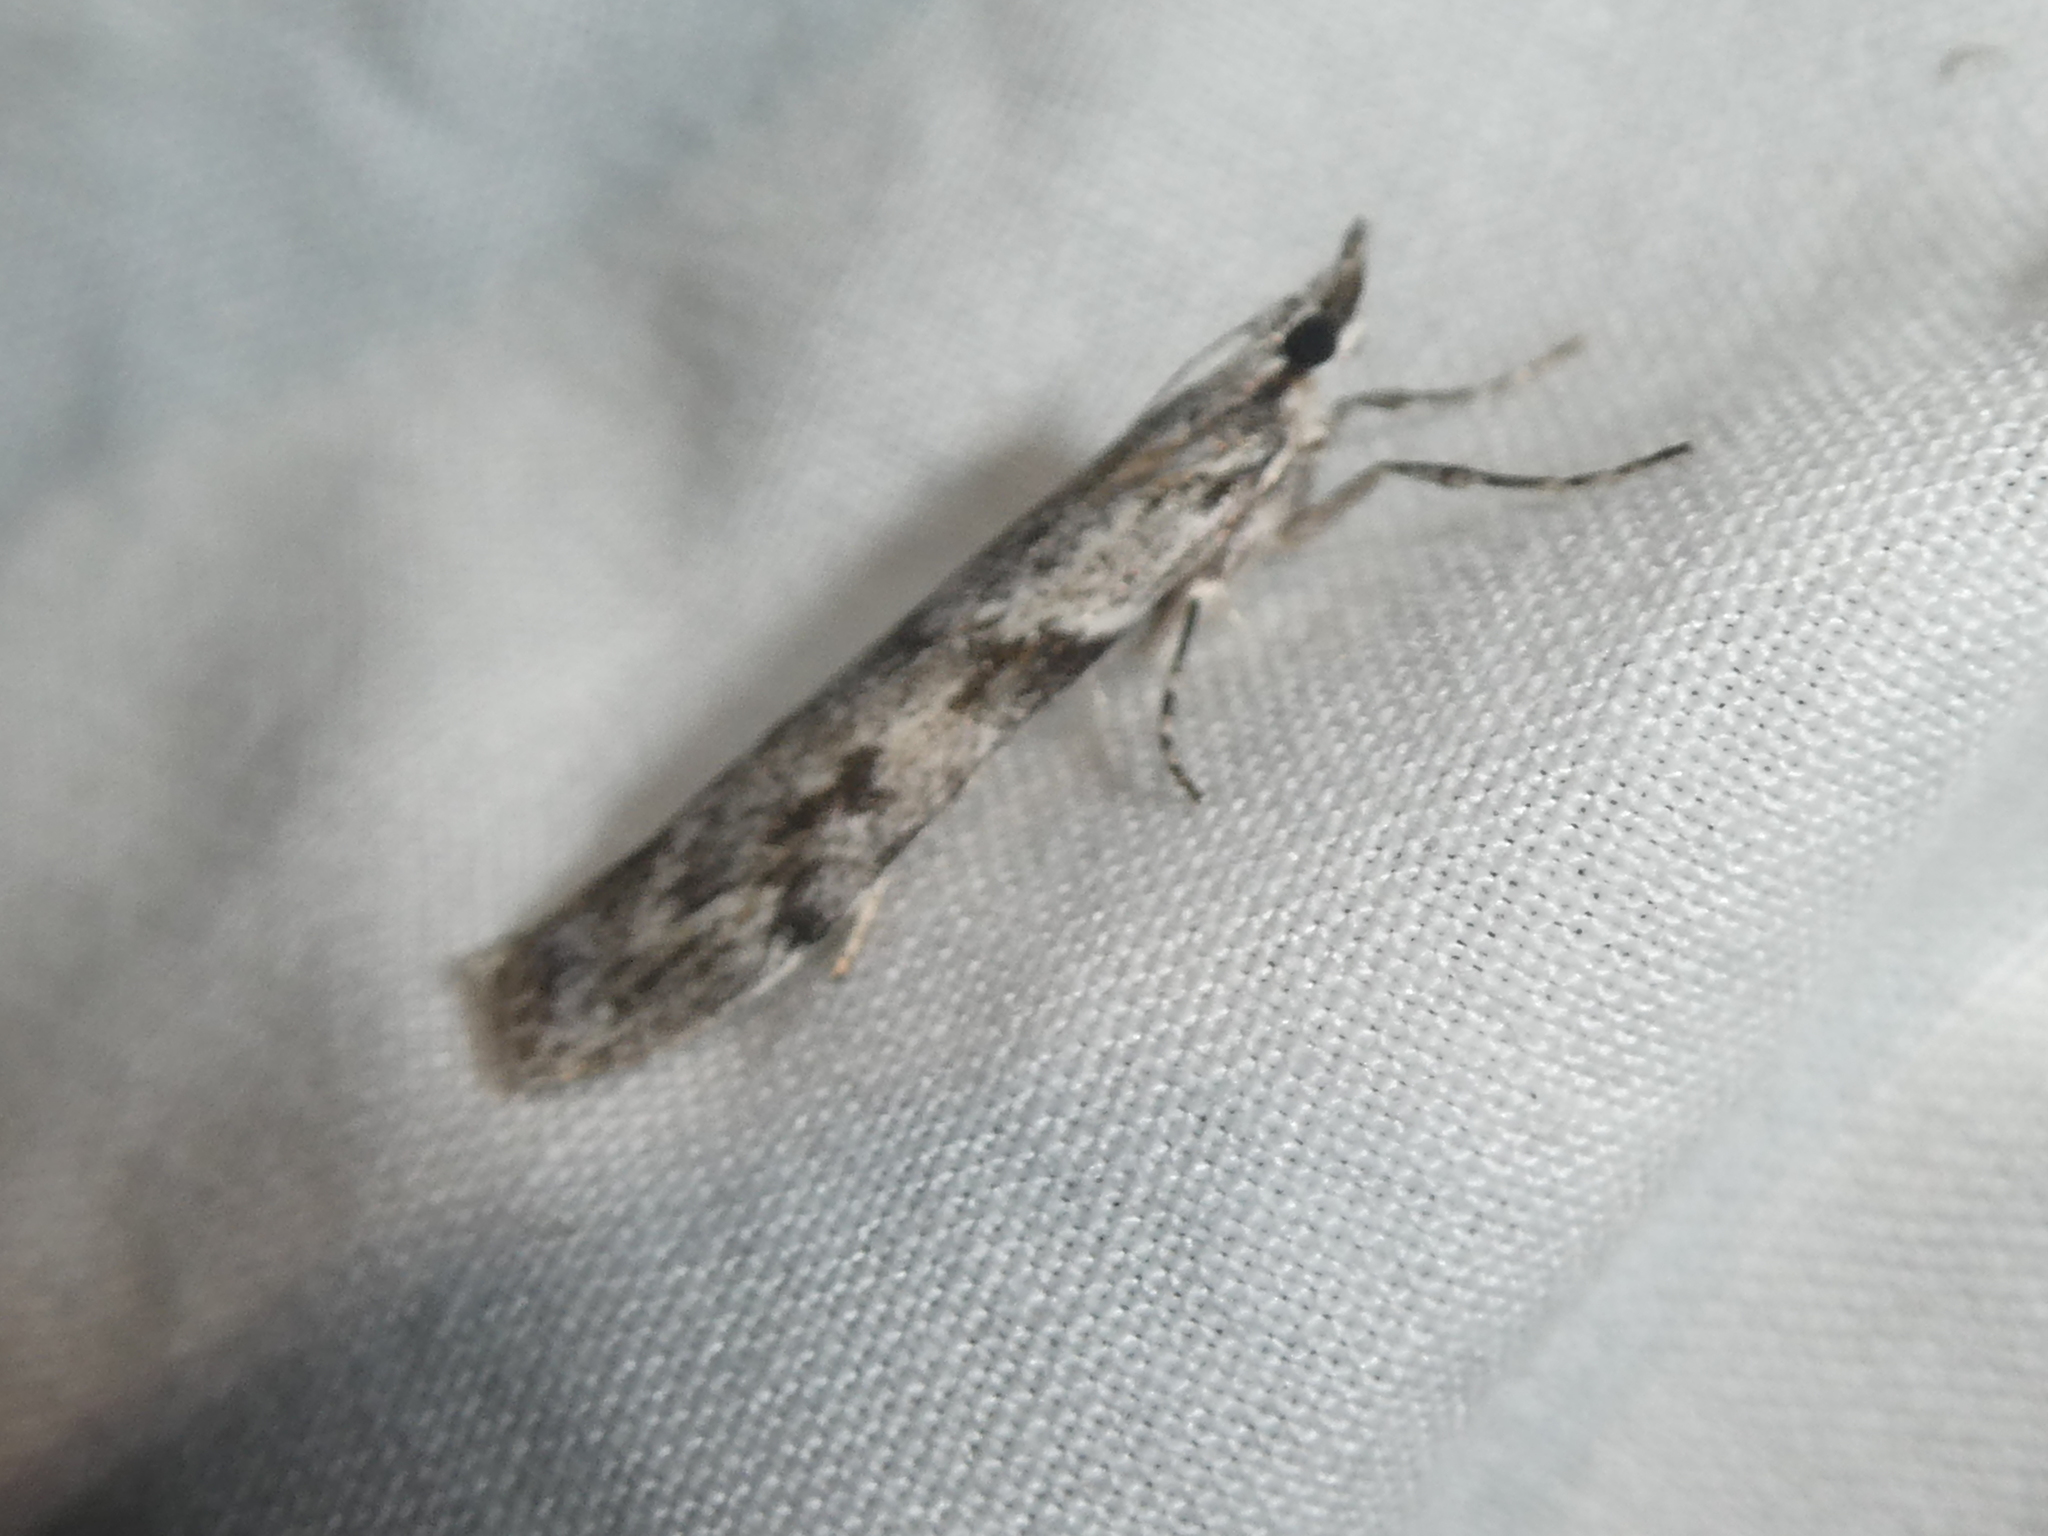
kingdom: Animalia
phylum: Arthropoda
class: Insecta
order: Lepidoptera
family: Crambidae
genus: Scoparia
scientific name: Scoparia halopis
